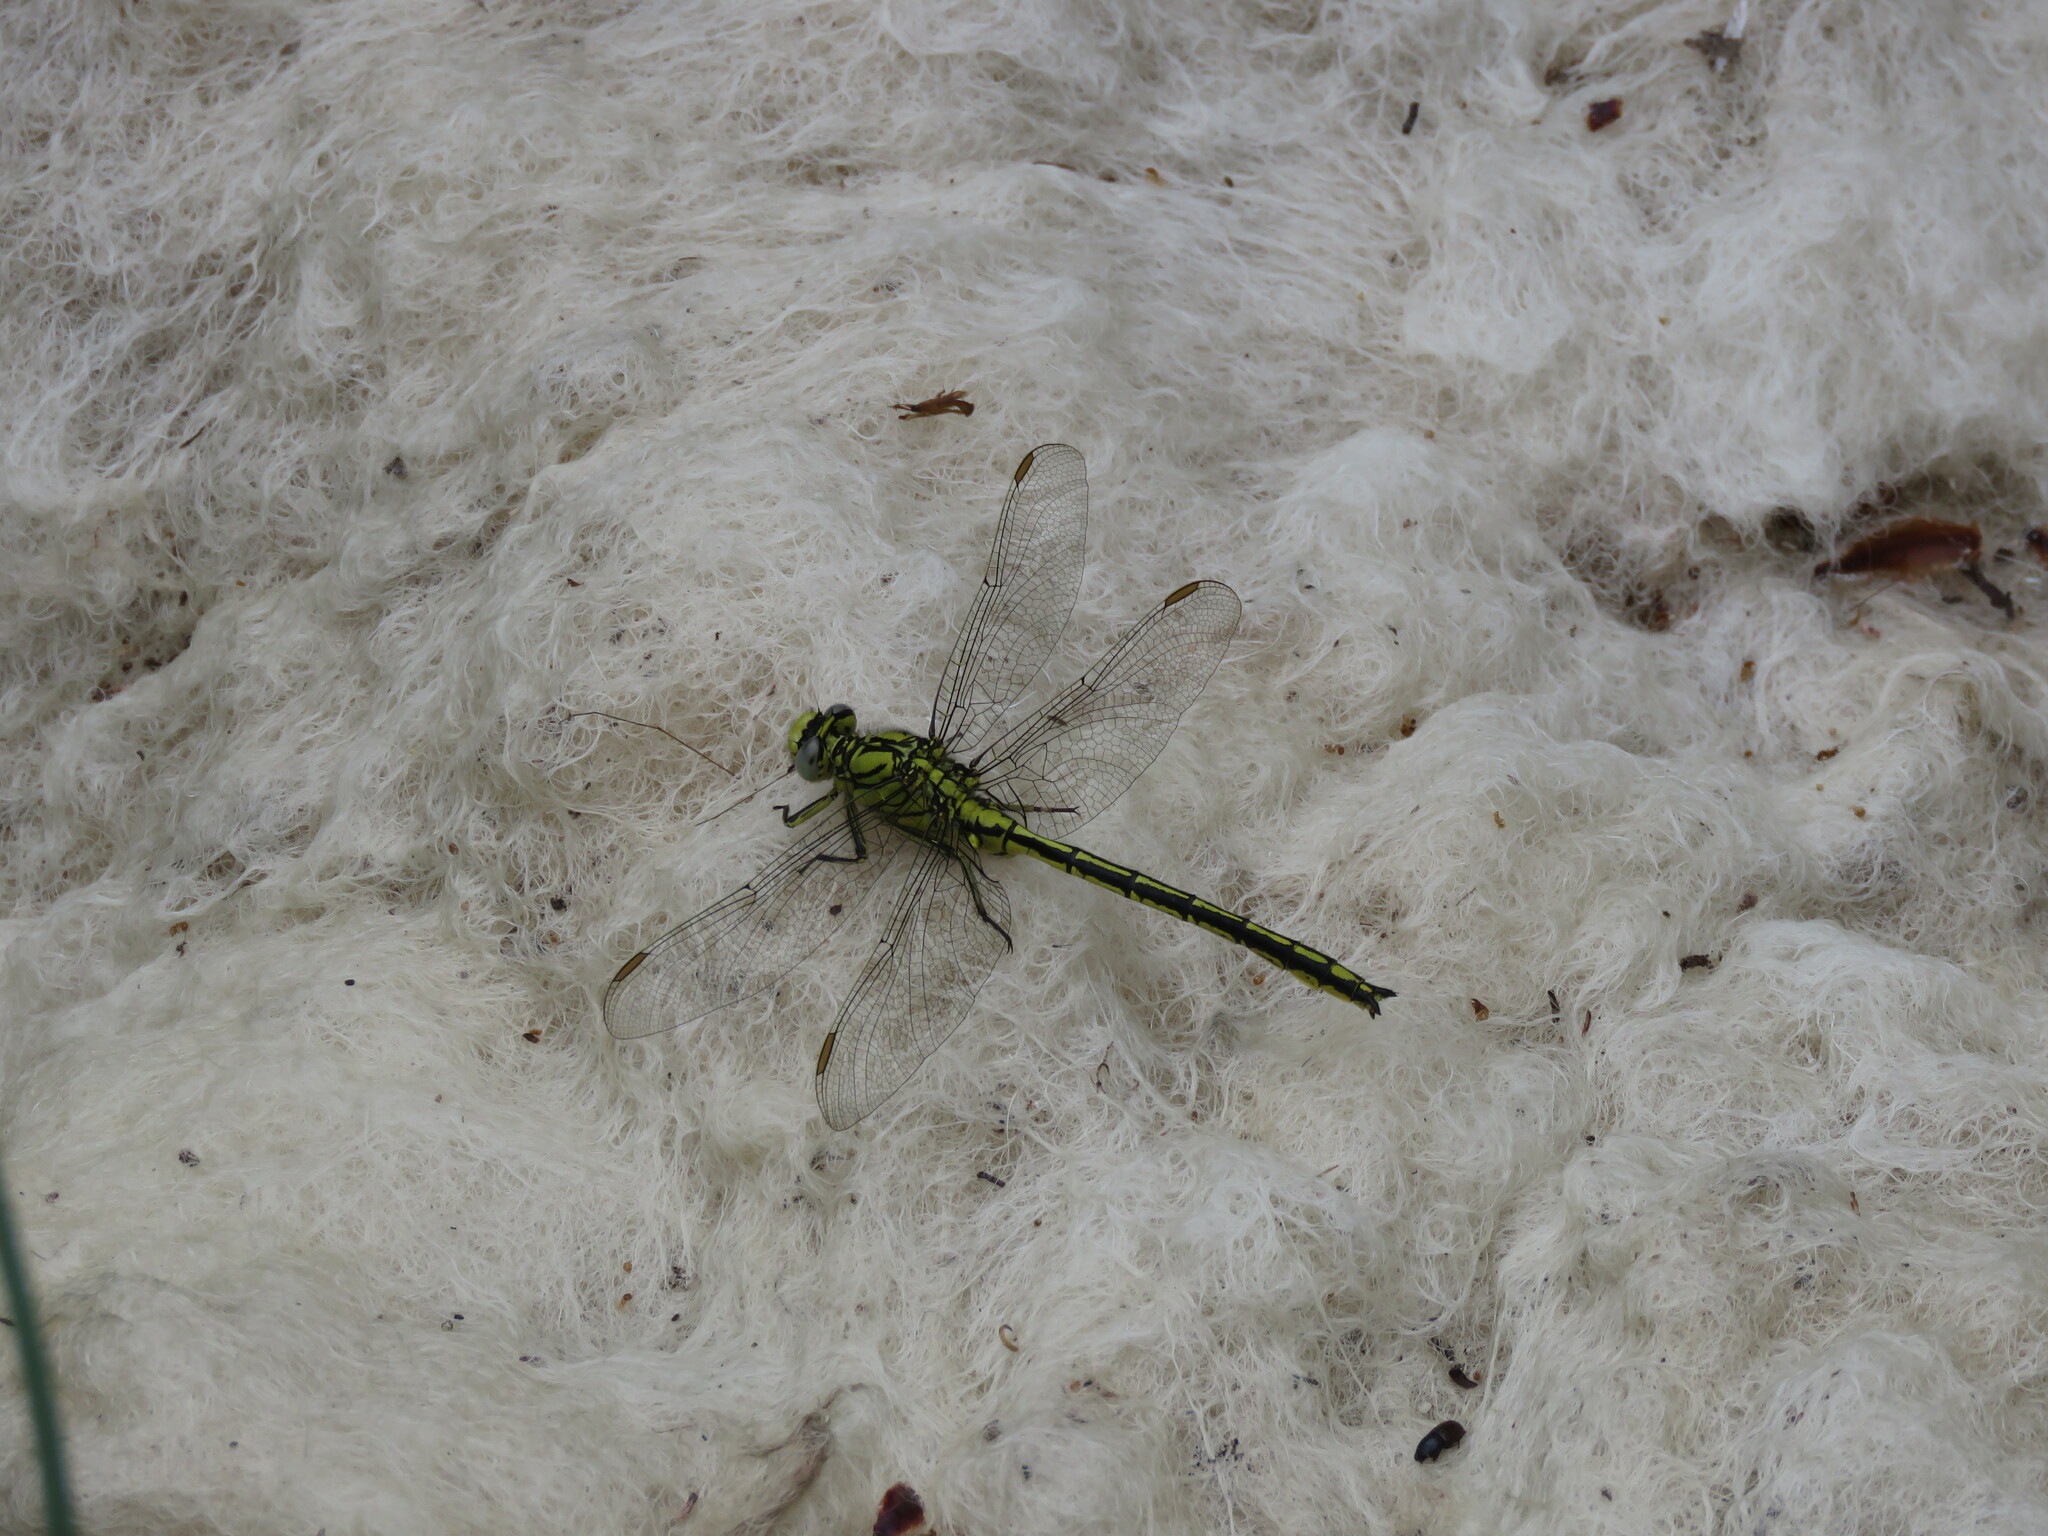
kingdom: Animalia
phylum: Arthropoda
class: Insecta
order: Odonata
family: Gomphidae
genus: Gomphus
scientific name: Gomphus pulchellus
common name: Western clubtail
